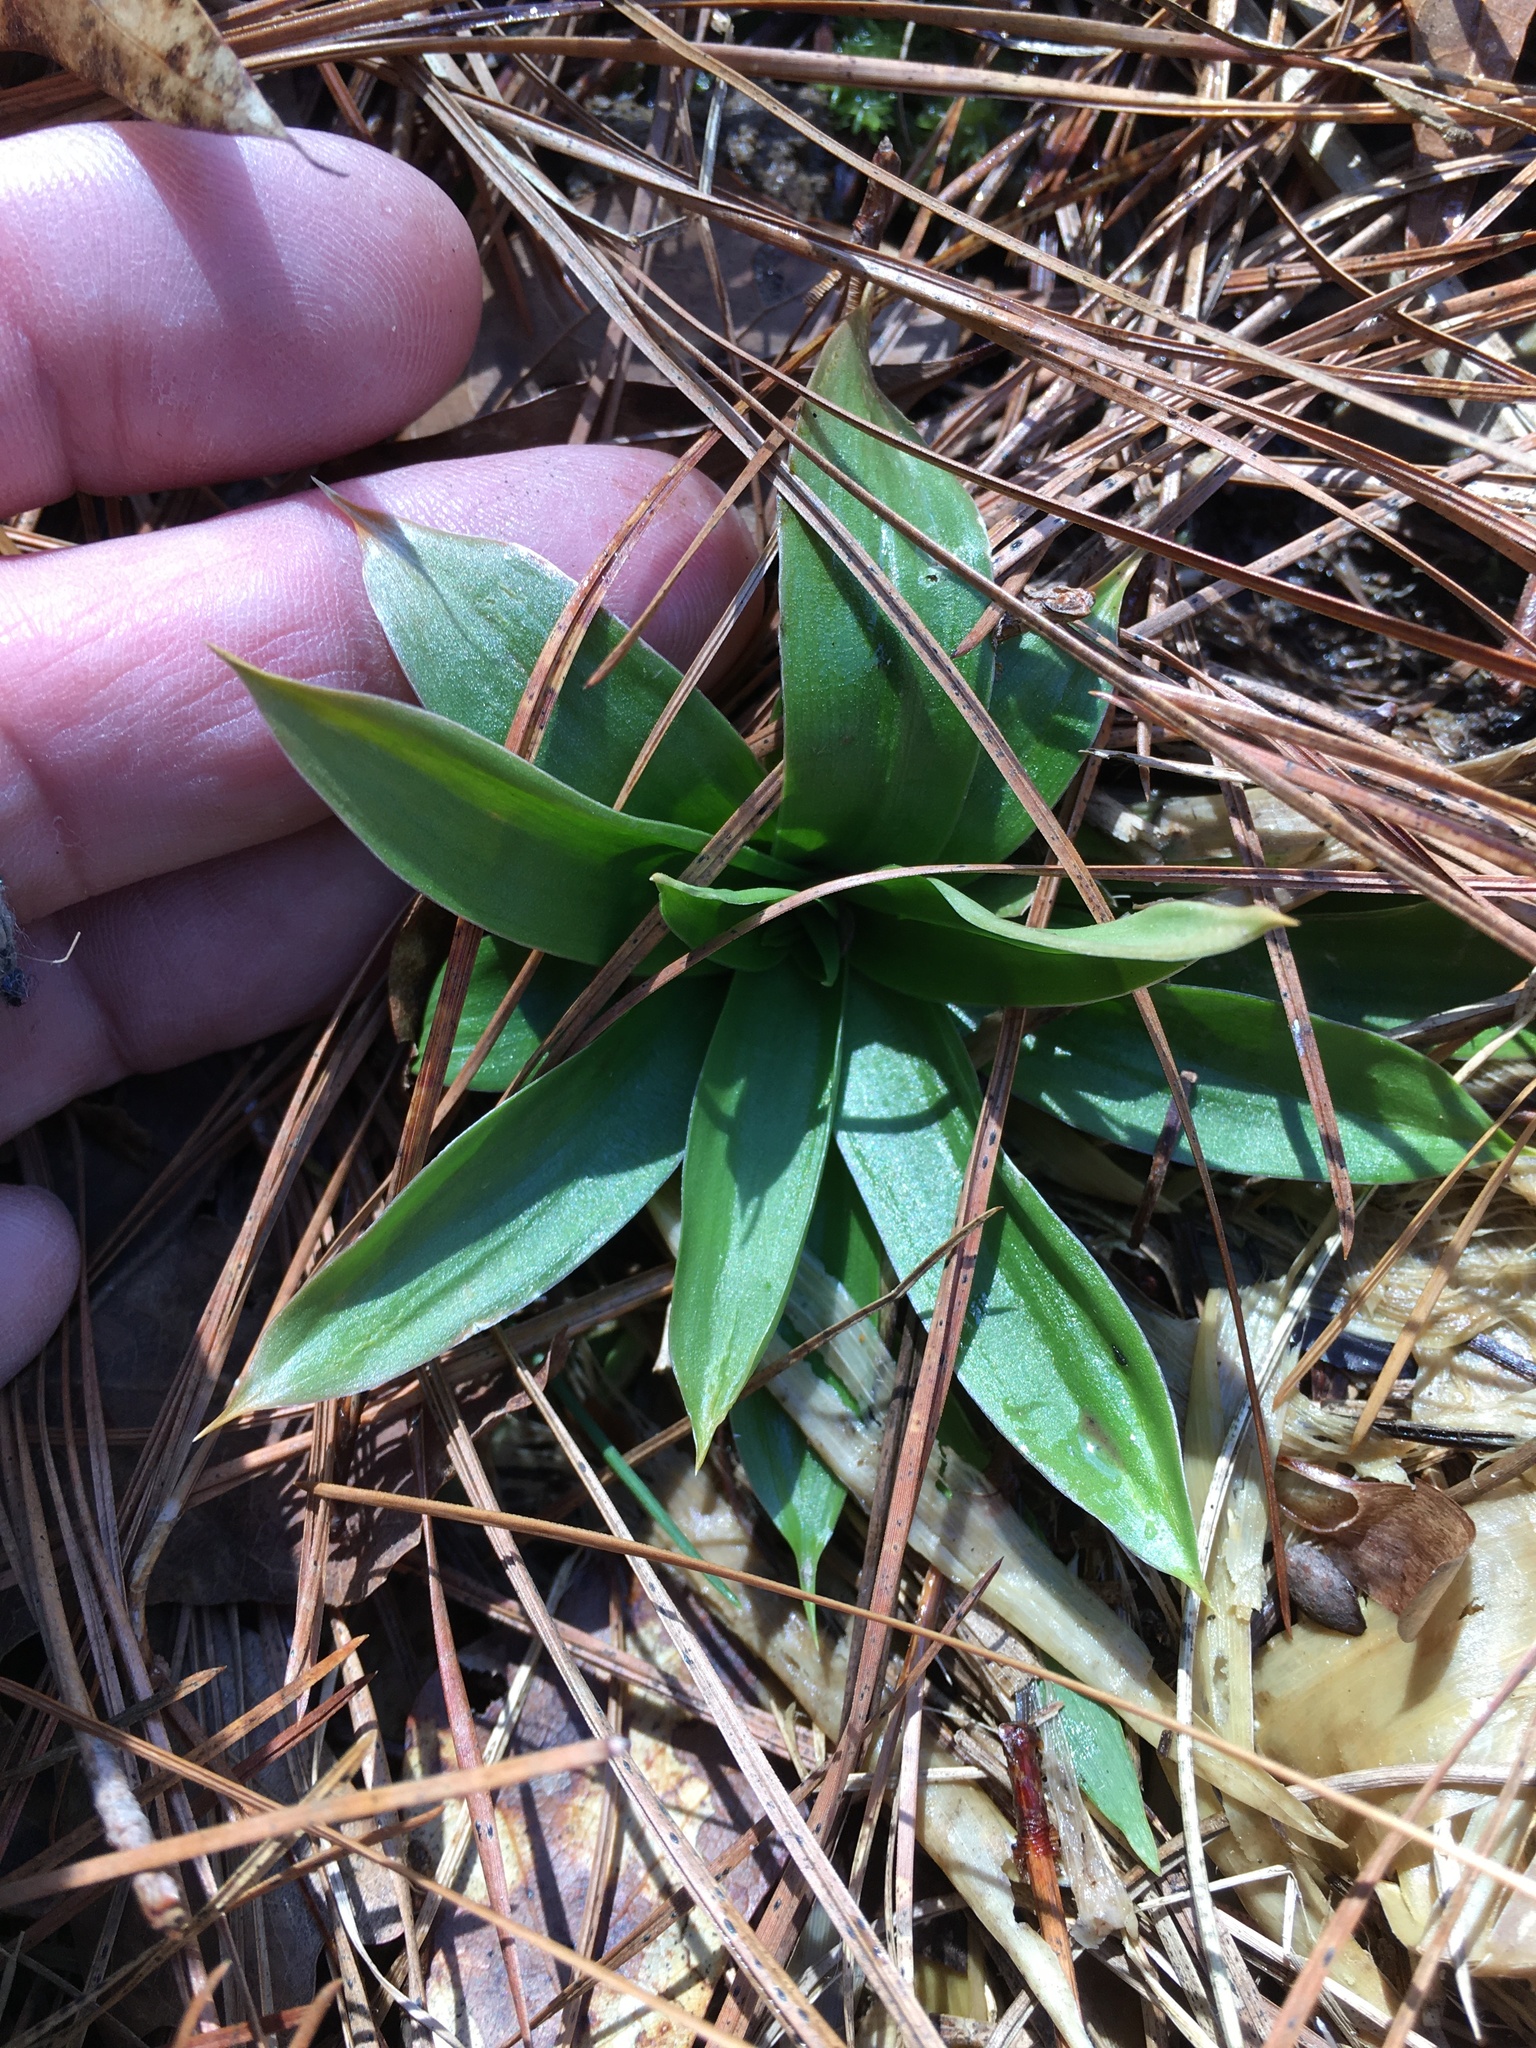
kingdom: Plantae
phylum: Tracheophyta
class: Liliopsida
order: Dioscoreales
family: Nartheciaceae
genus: Aletris
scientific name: Aletris farinosa
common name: Colicroot
